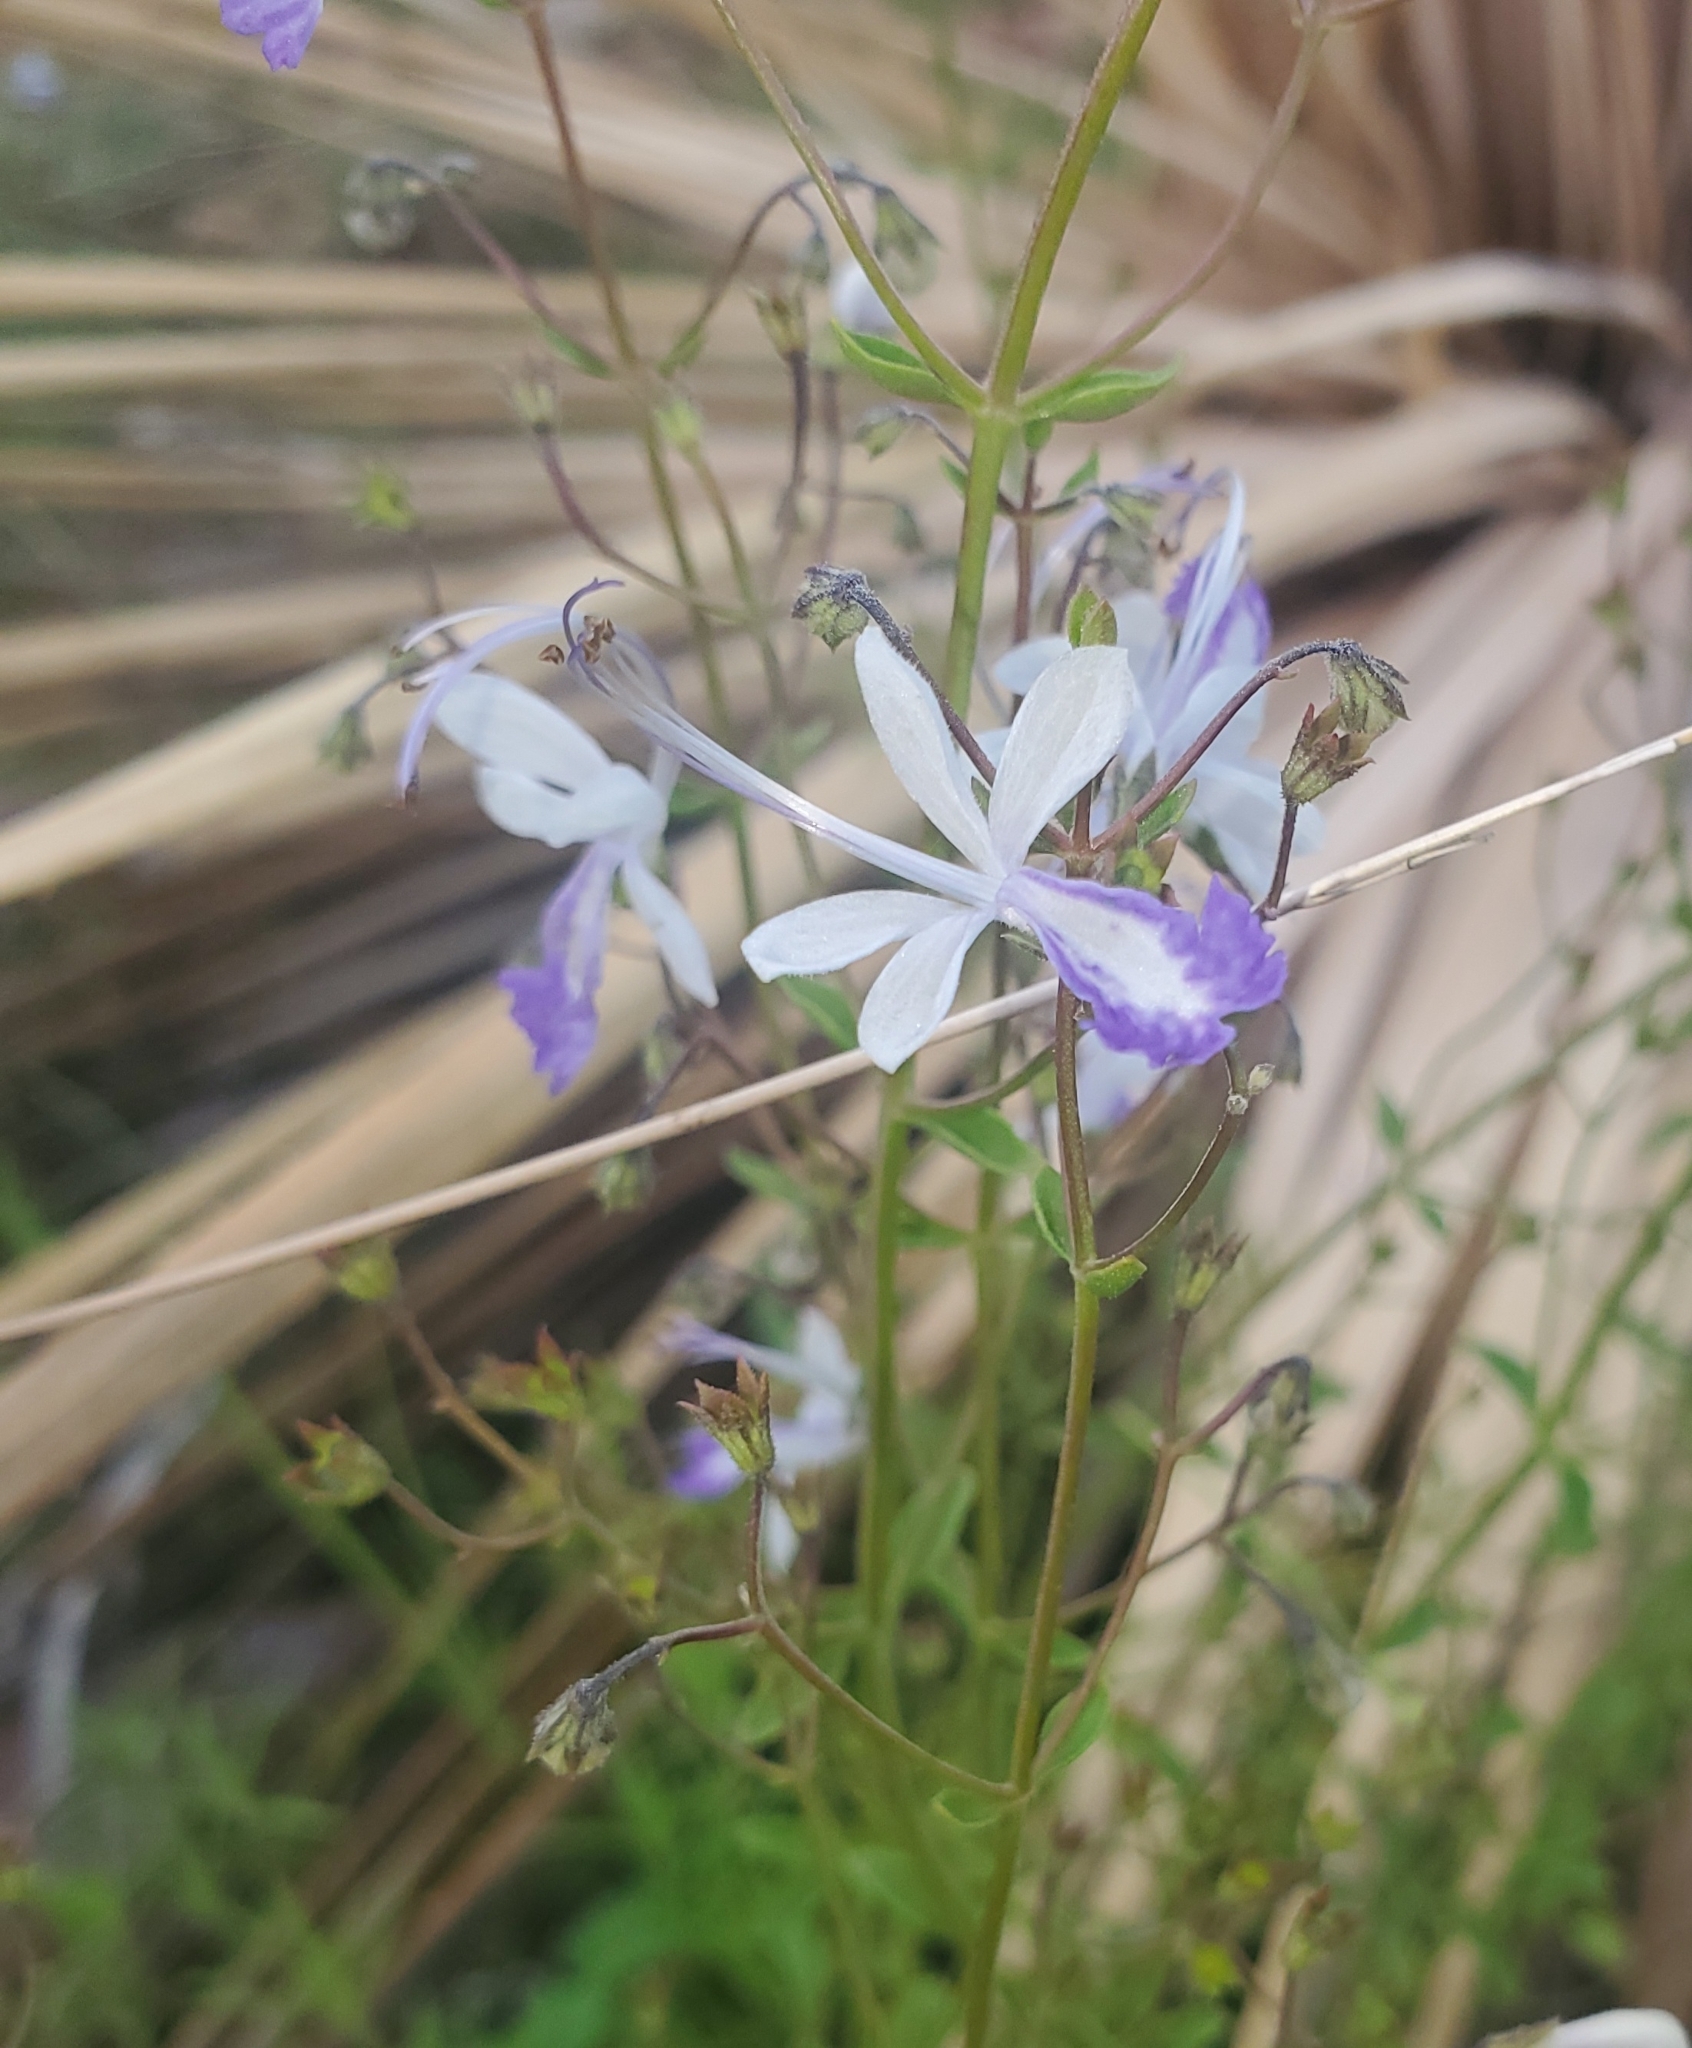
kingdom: Plantae
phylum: Tracheophyta
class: Magnoliopsida
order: Lamiales
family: Lamiaceae
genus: Trichostema
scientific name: Trichostema arizonicum
